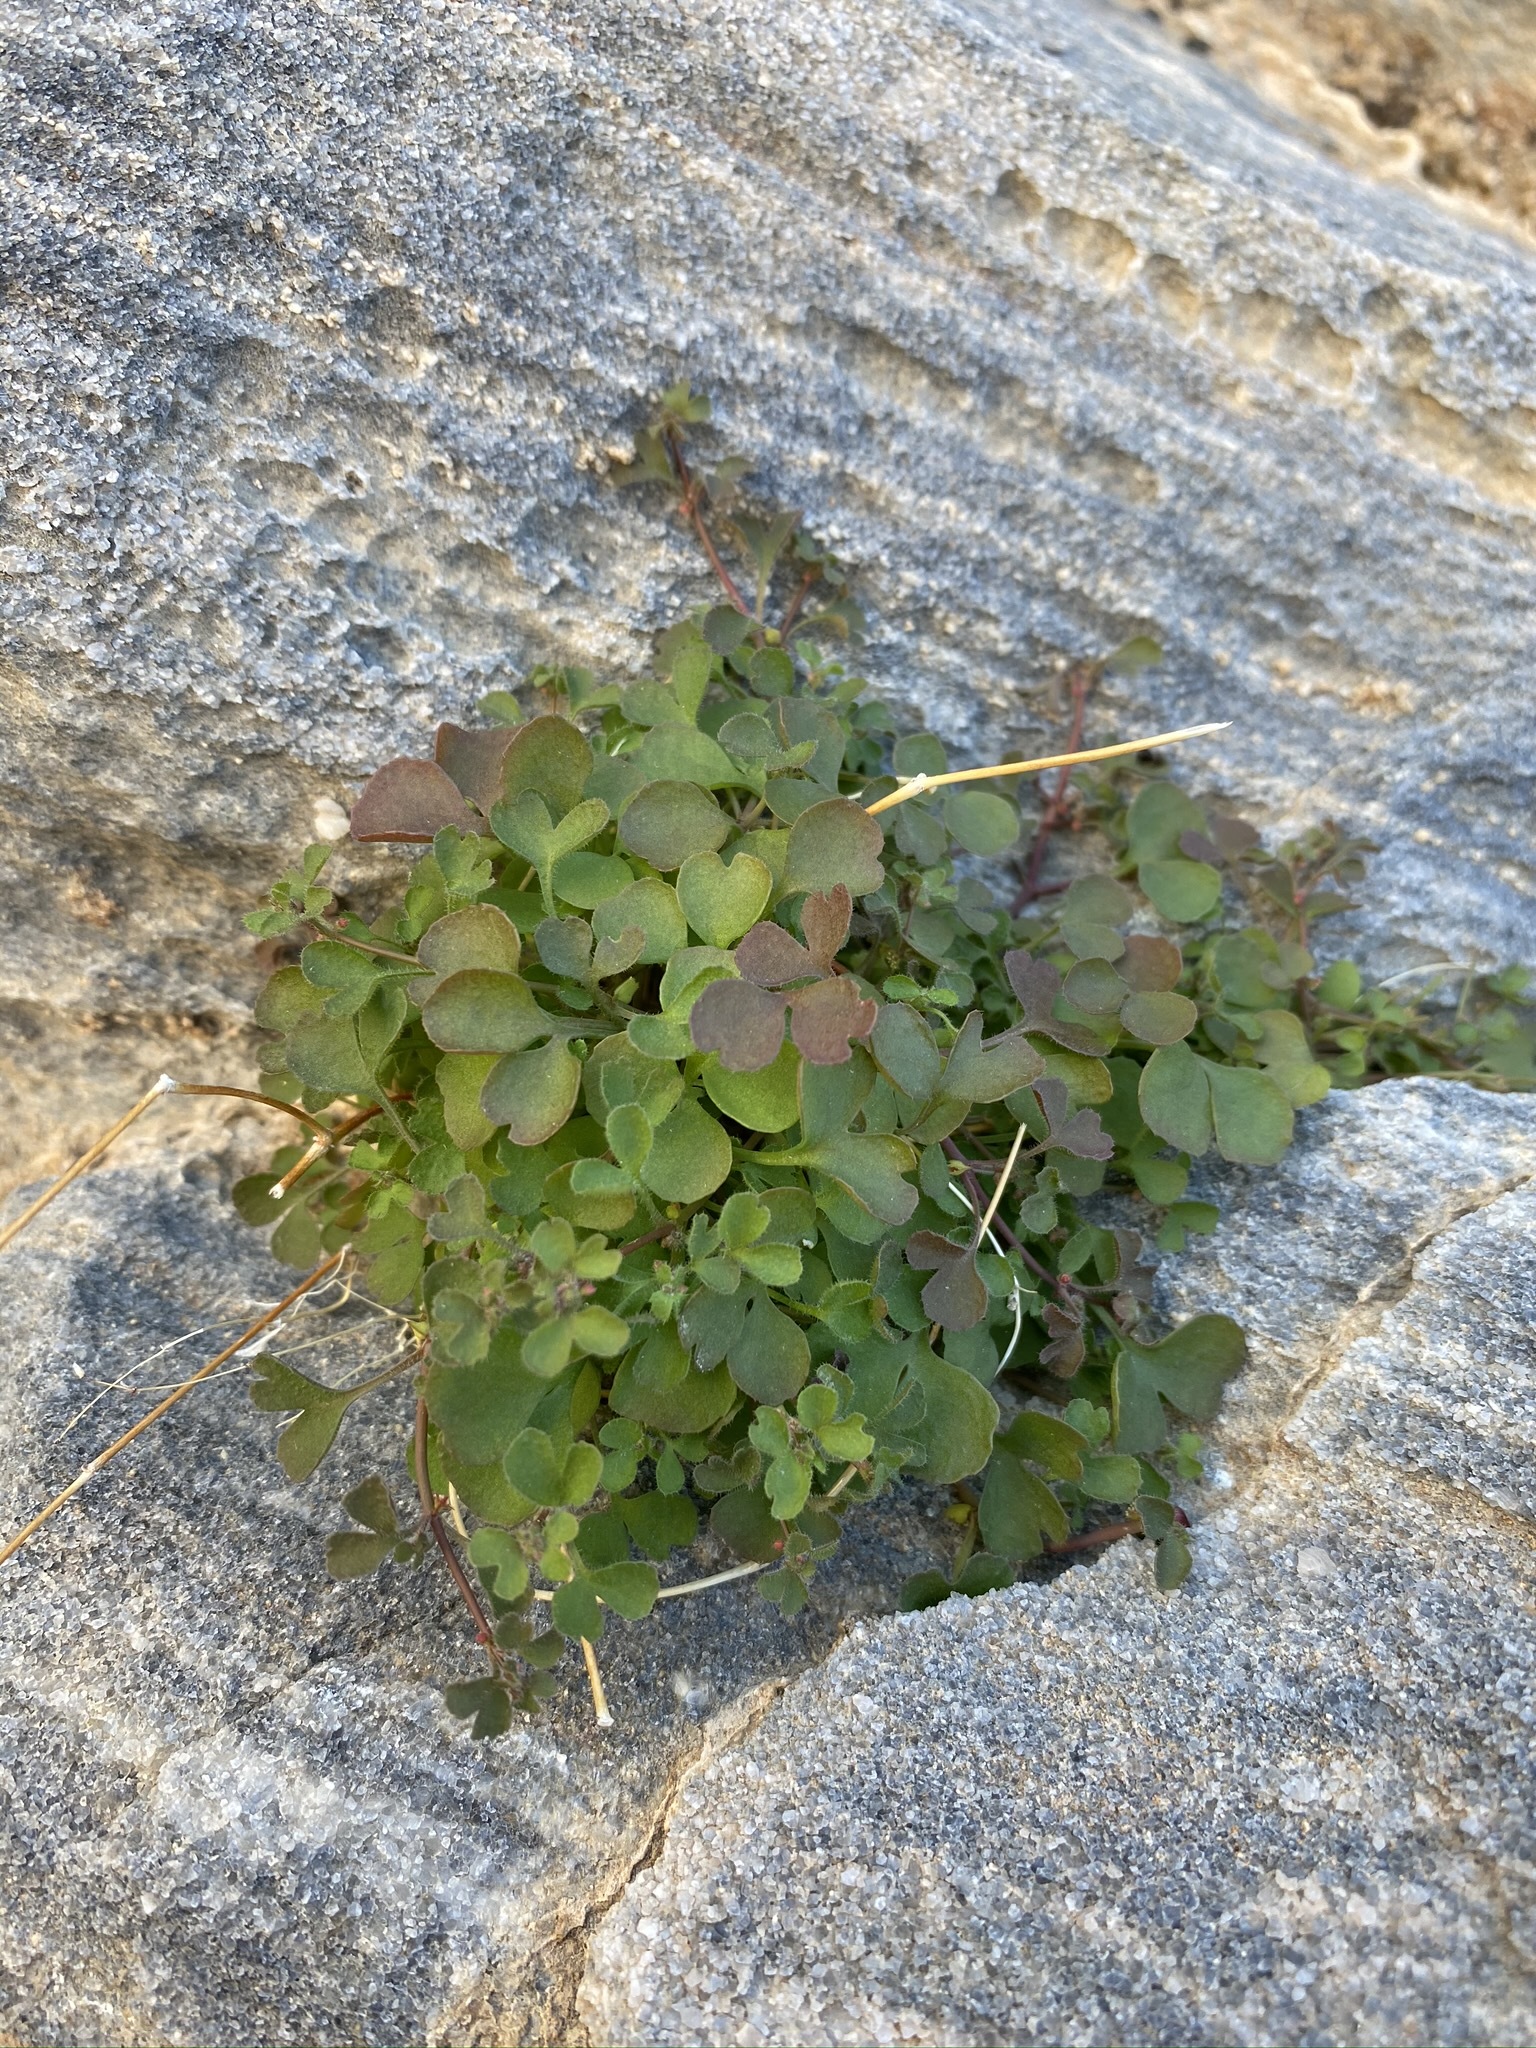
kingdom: Plantae
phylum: Tracheophyta
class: Magnoliopsida
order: Caryophyllales
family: Polygonaceae
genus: Pterostegia
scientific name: Pterostegia drymarioides
